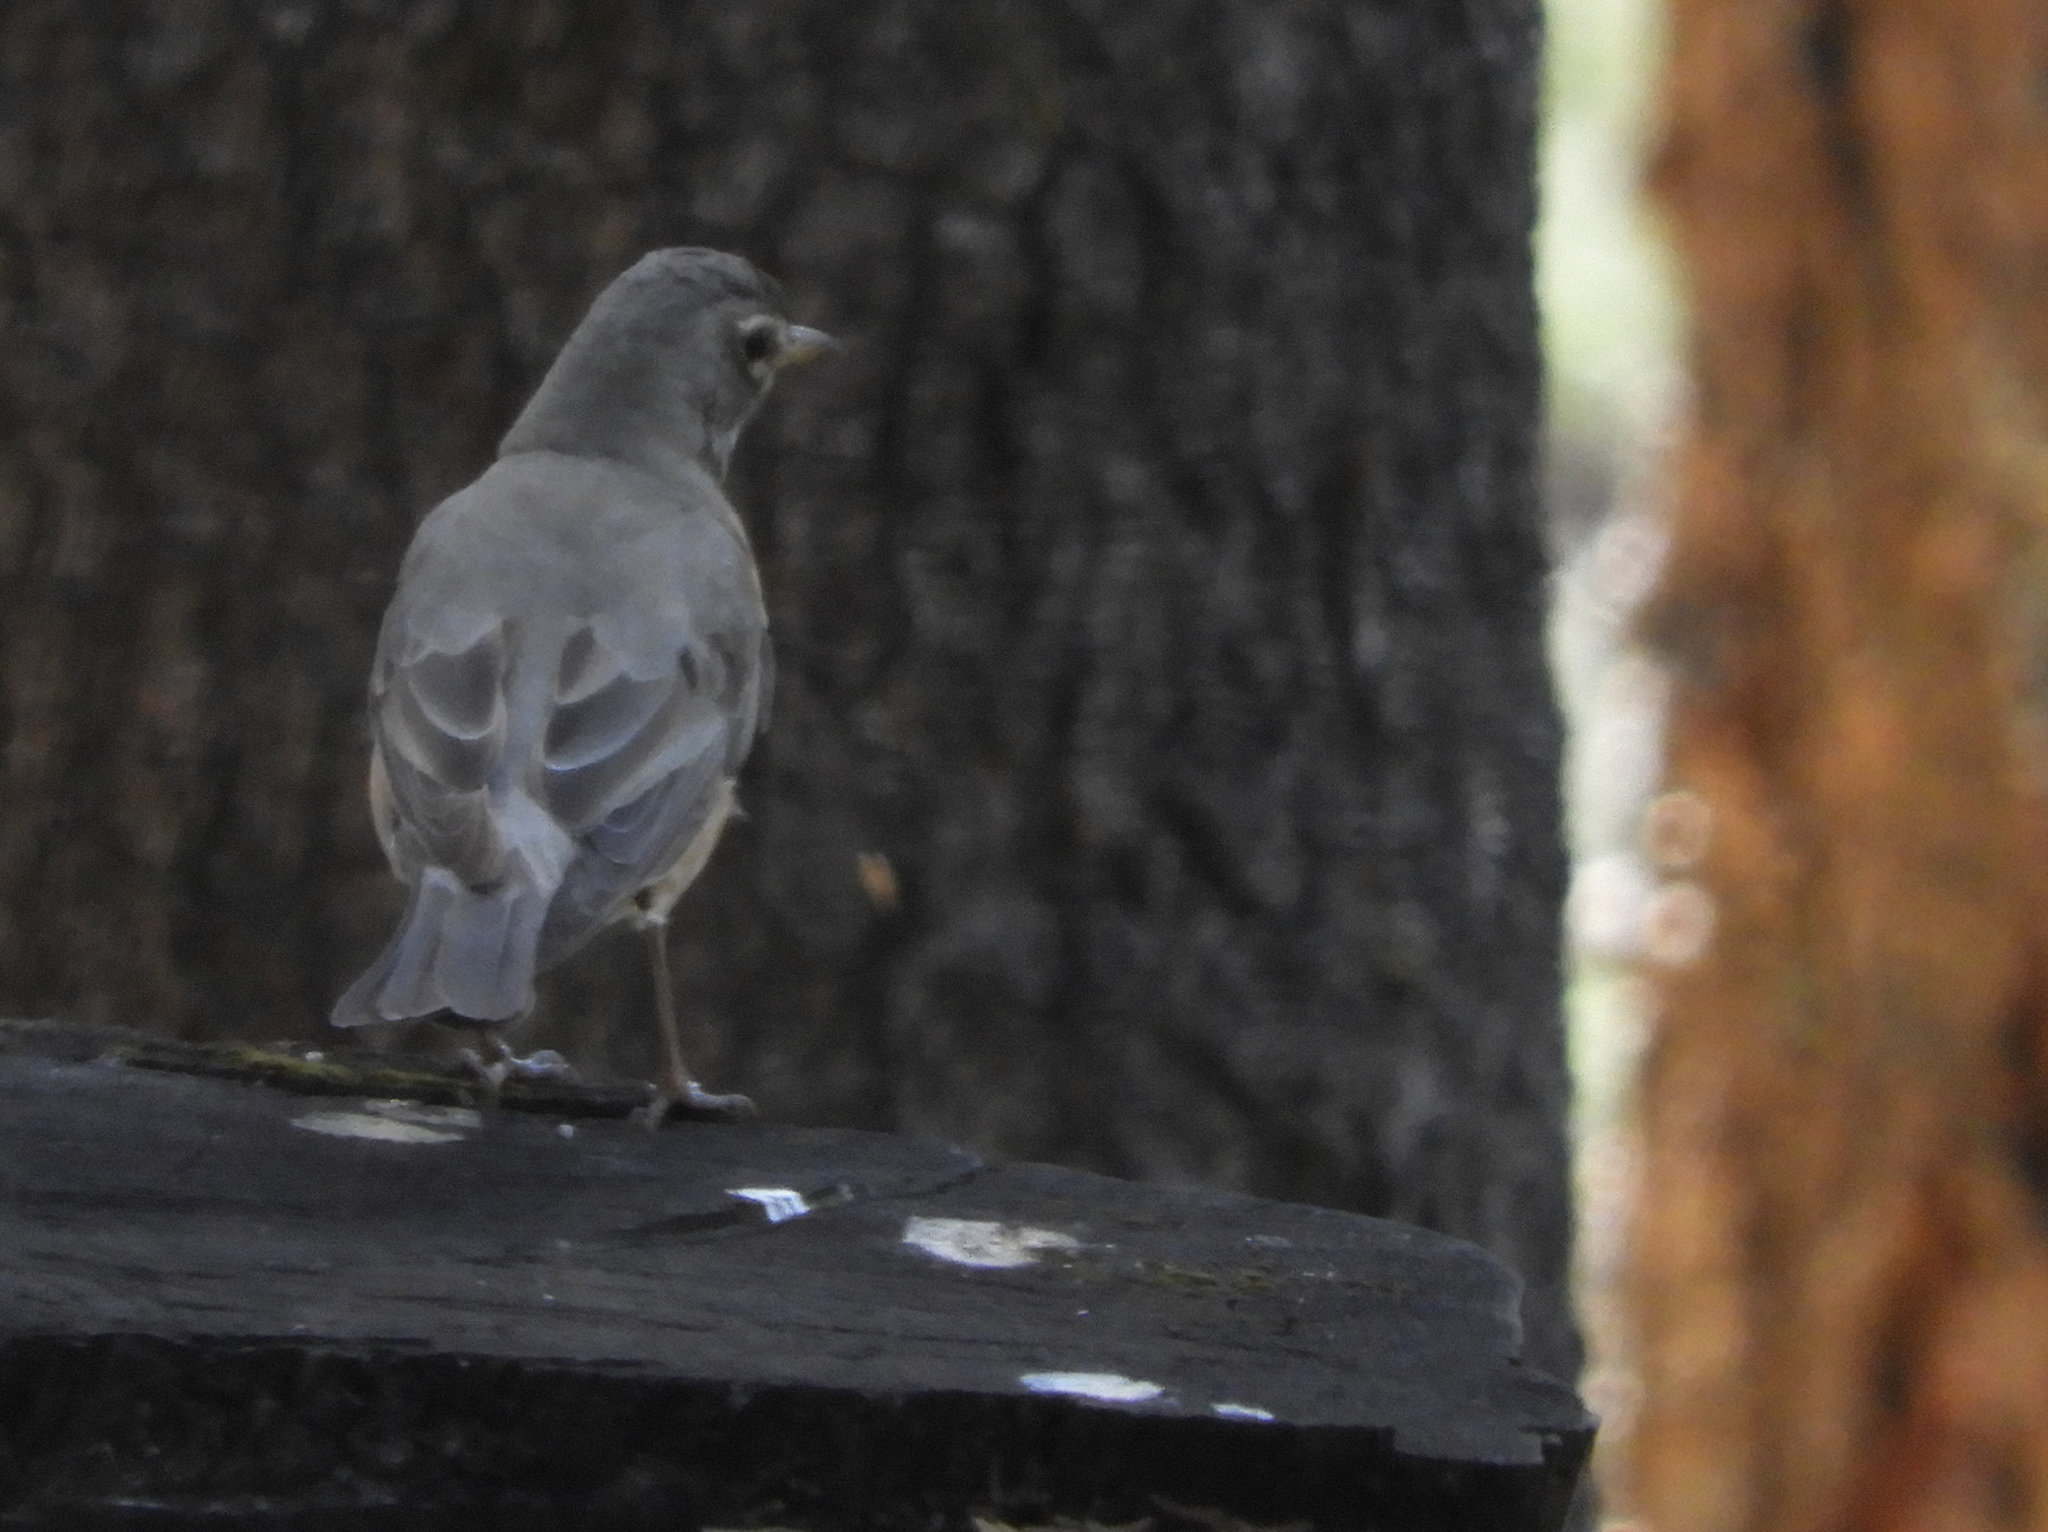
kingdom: Animalia
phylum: Chordata
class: Aves
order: Passeriformes
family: Turdidae
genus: Turdus
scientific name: Turdus migratorius
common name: American robin
